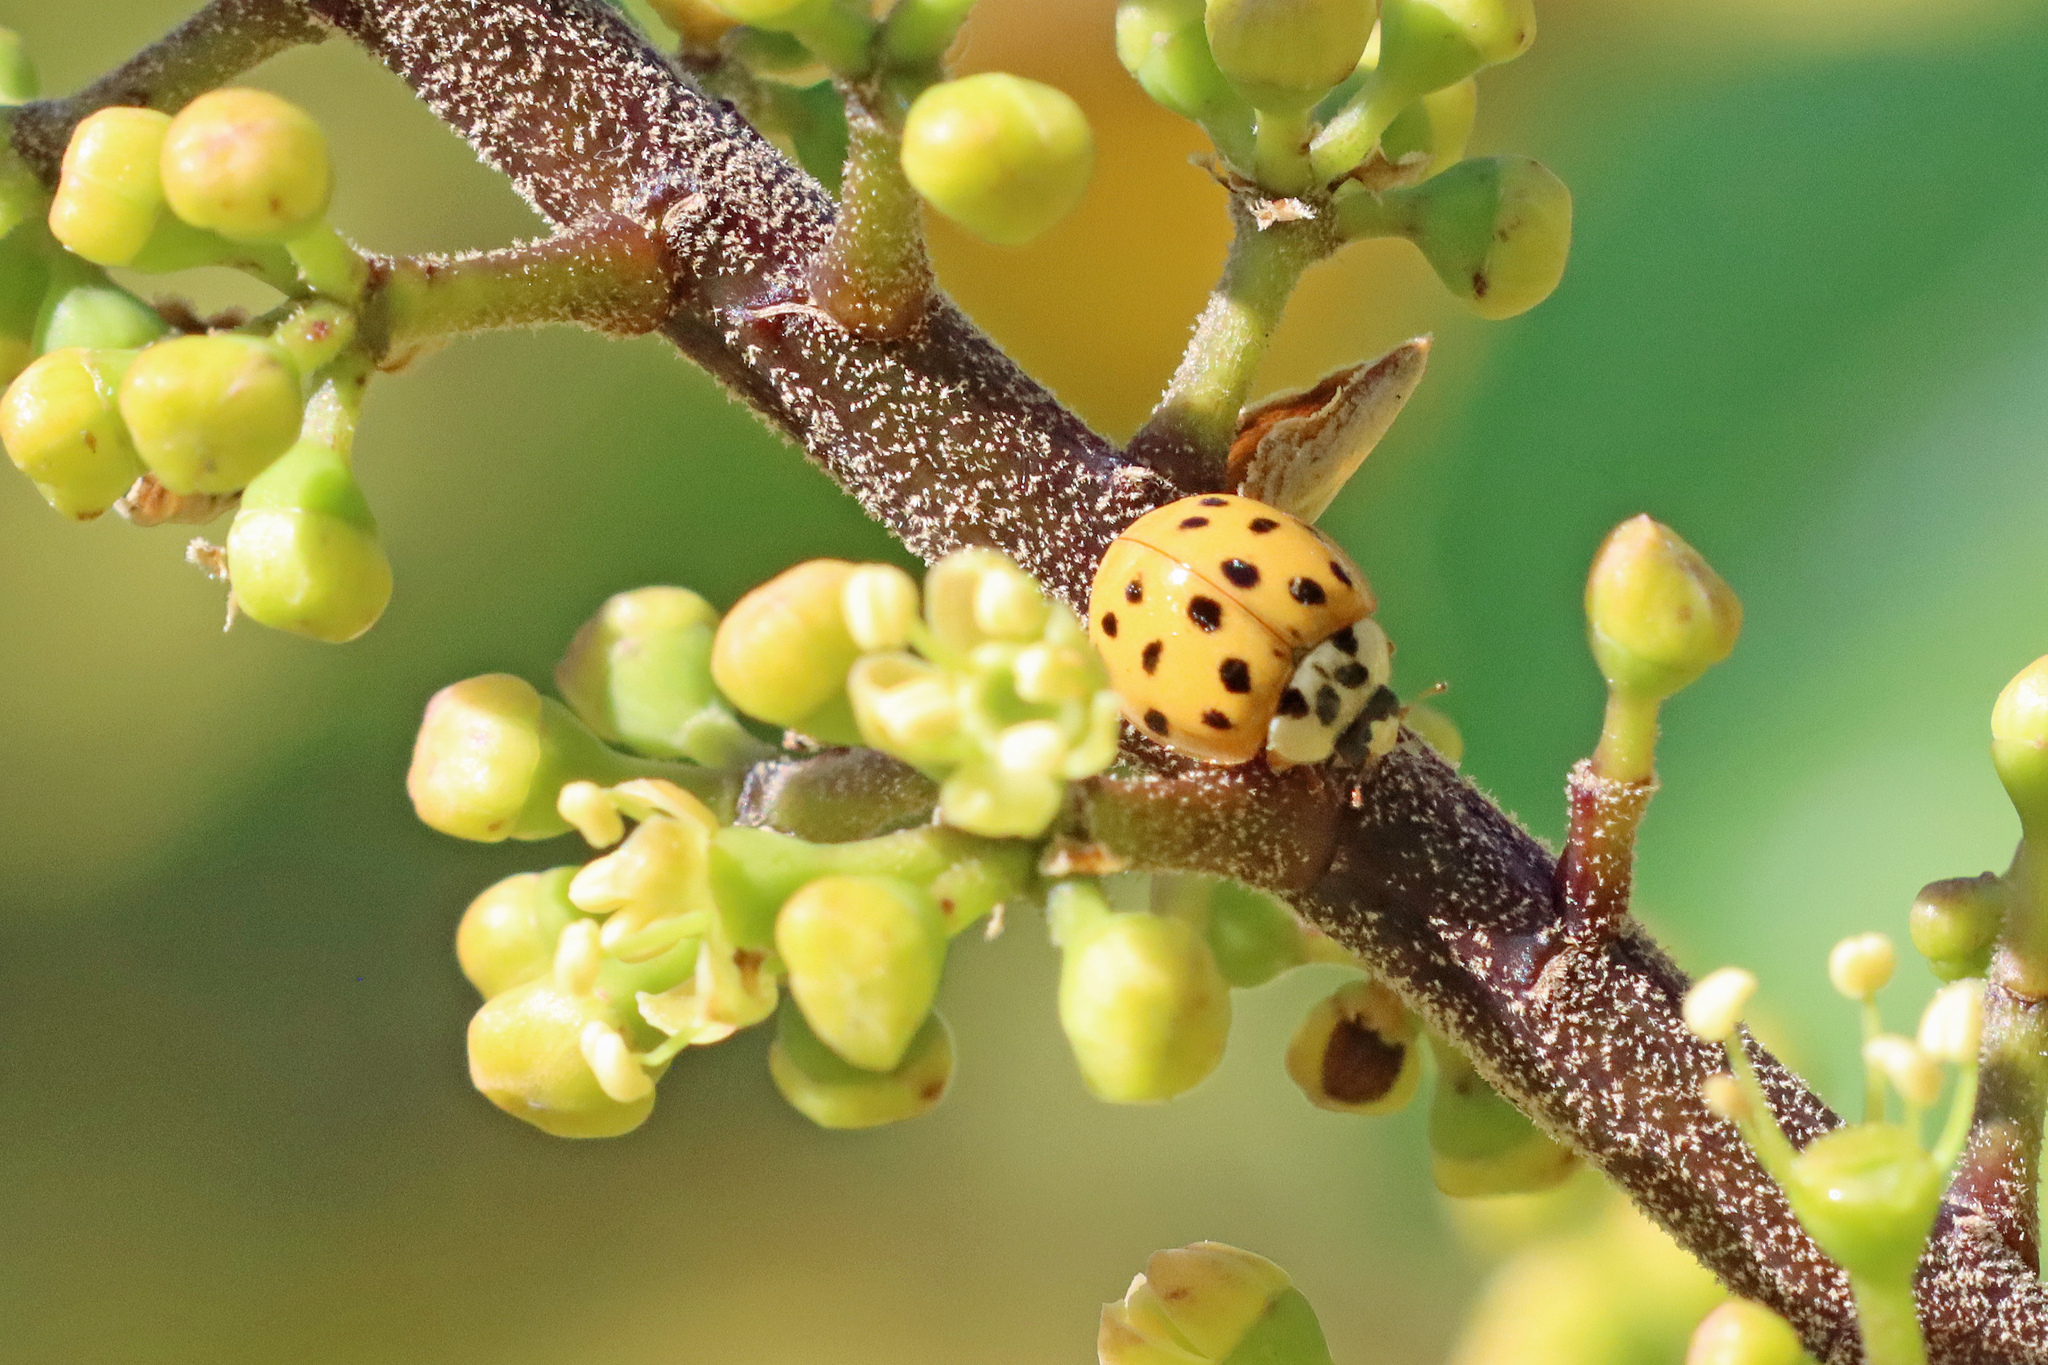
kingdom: Animalia
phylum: Arthropoda
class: Insecta
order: Coleoptera
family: Coccinellidae
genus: Harmonia
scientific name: Harmonia axyridis
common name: Harlequin ladybird
